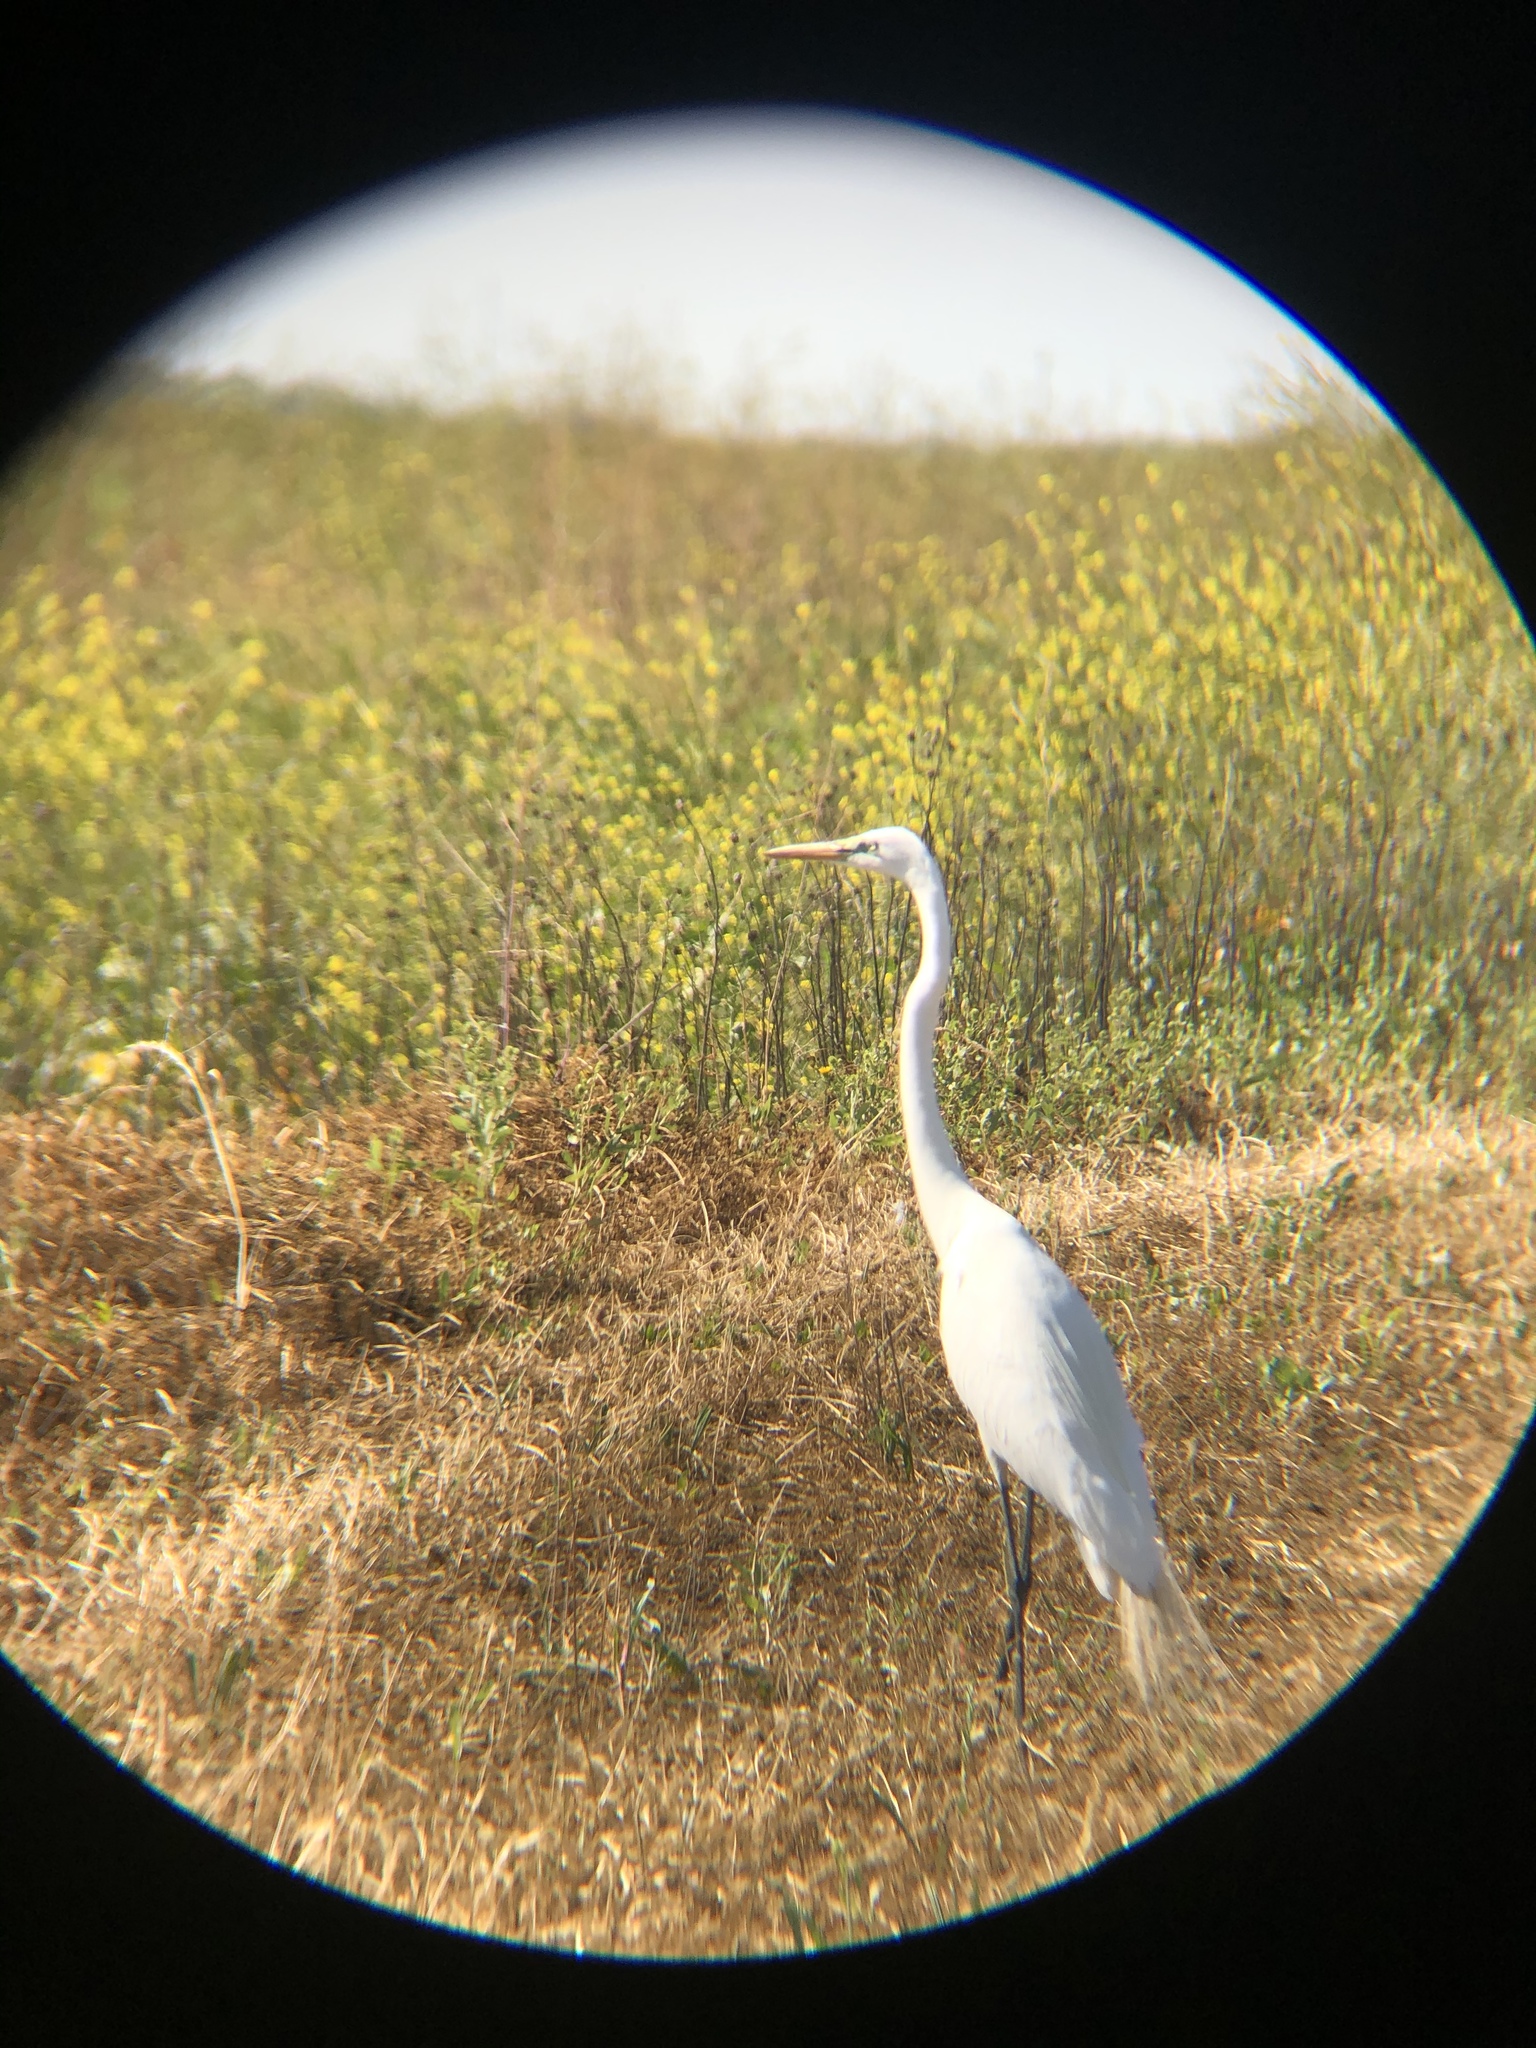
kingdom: Animalia
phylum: Chordata
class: Aves
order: Pelecaniformes
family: Ardeidae
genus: Ardea
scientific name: Ardea alba
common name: Great egret
